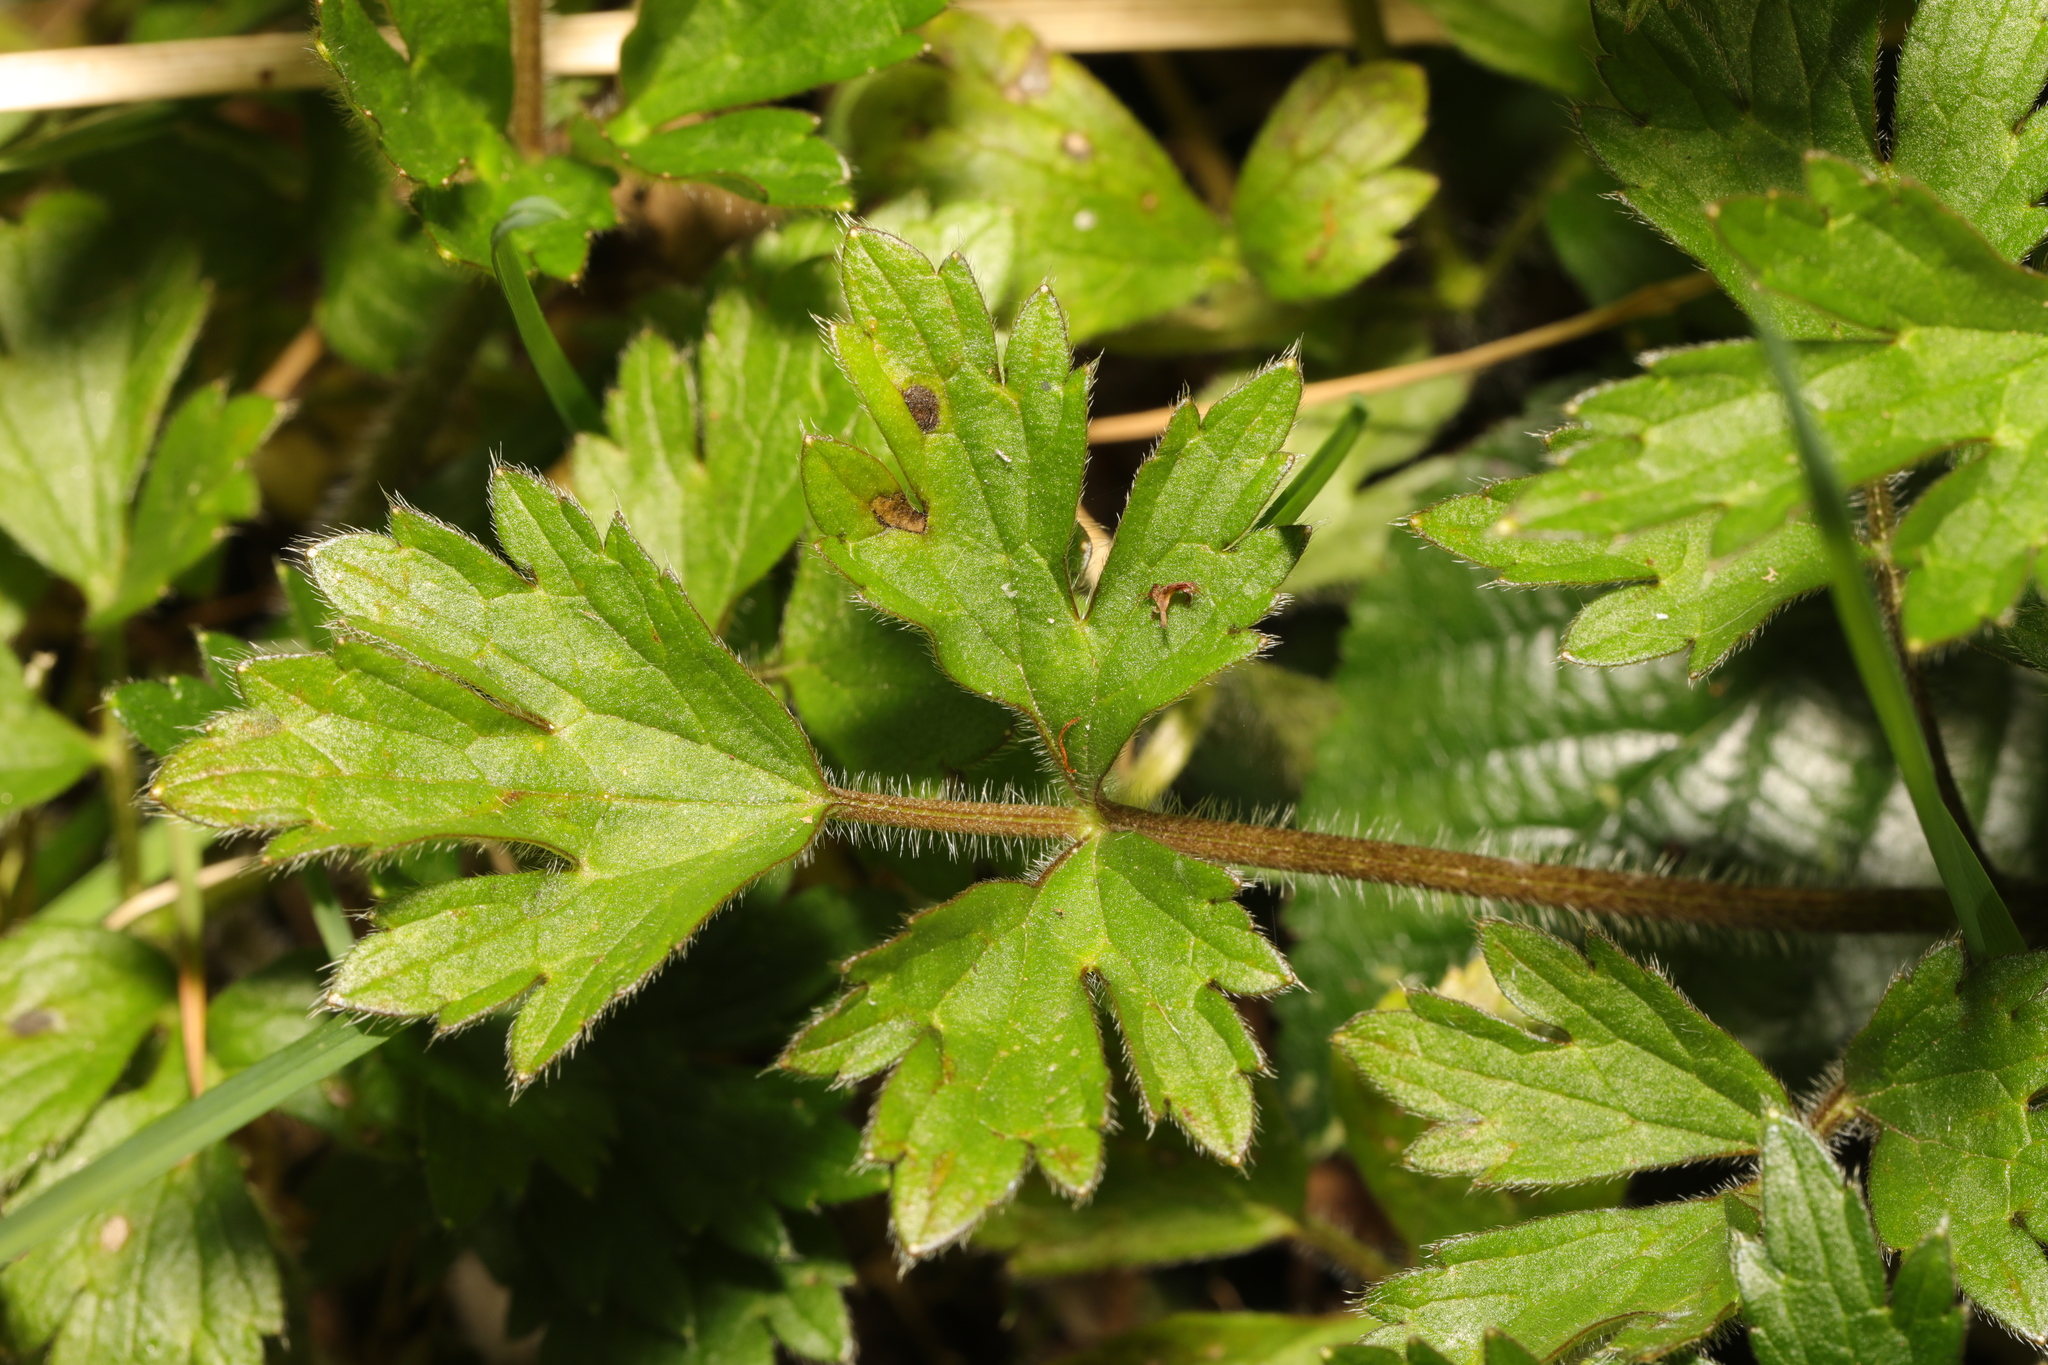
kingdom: Plantae
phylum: Tracheophyta
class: Magnoliopsida
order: Ranunculales
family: Ranunculaceae
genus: Ranunculus
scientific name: Ranunculus repens
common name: Creeping buttercup
